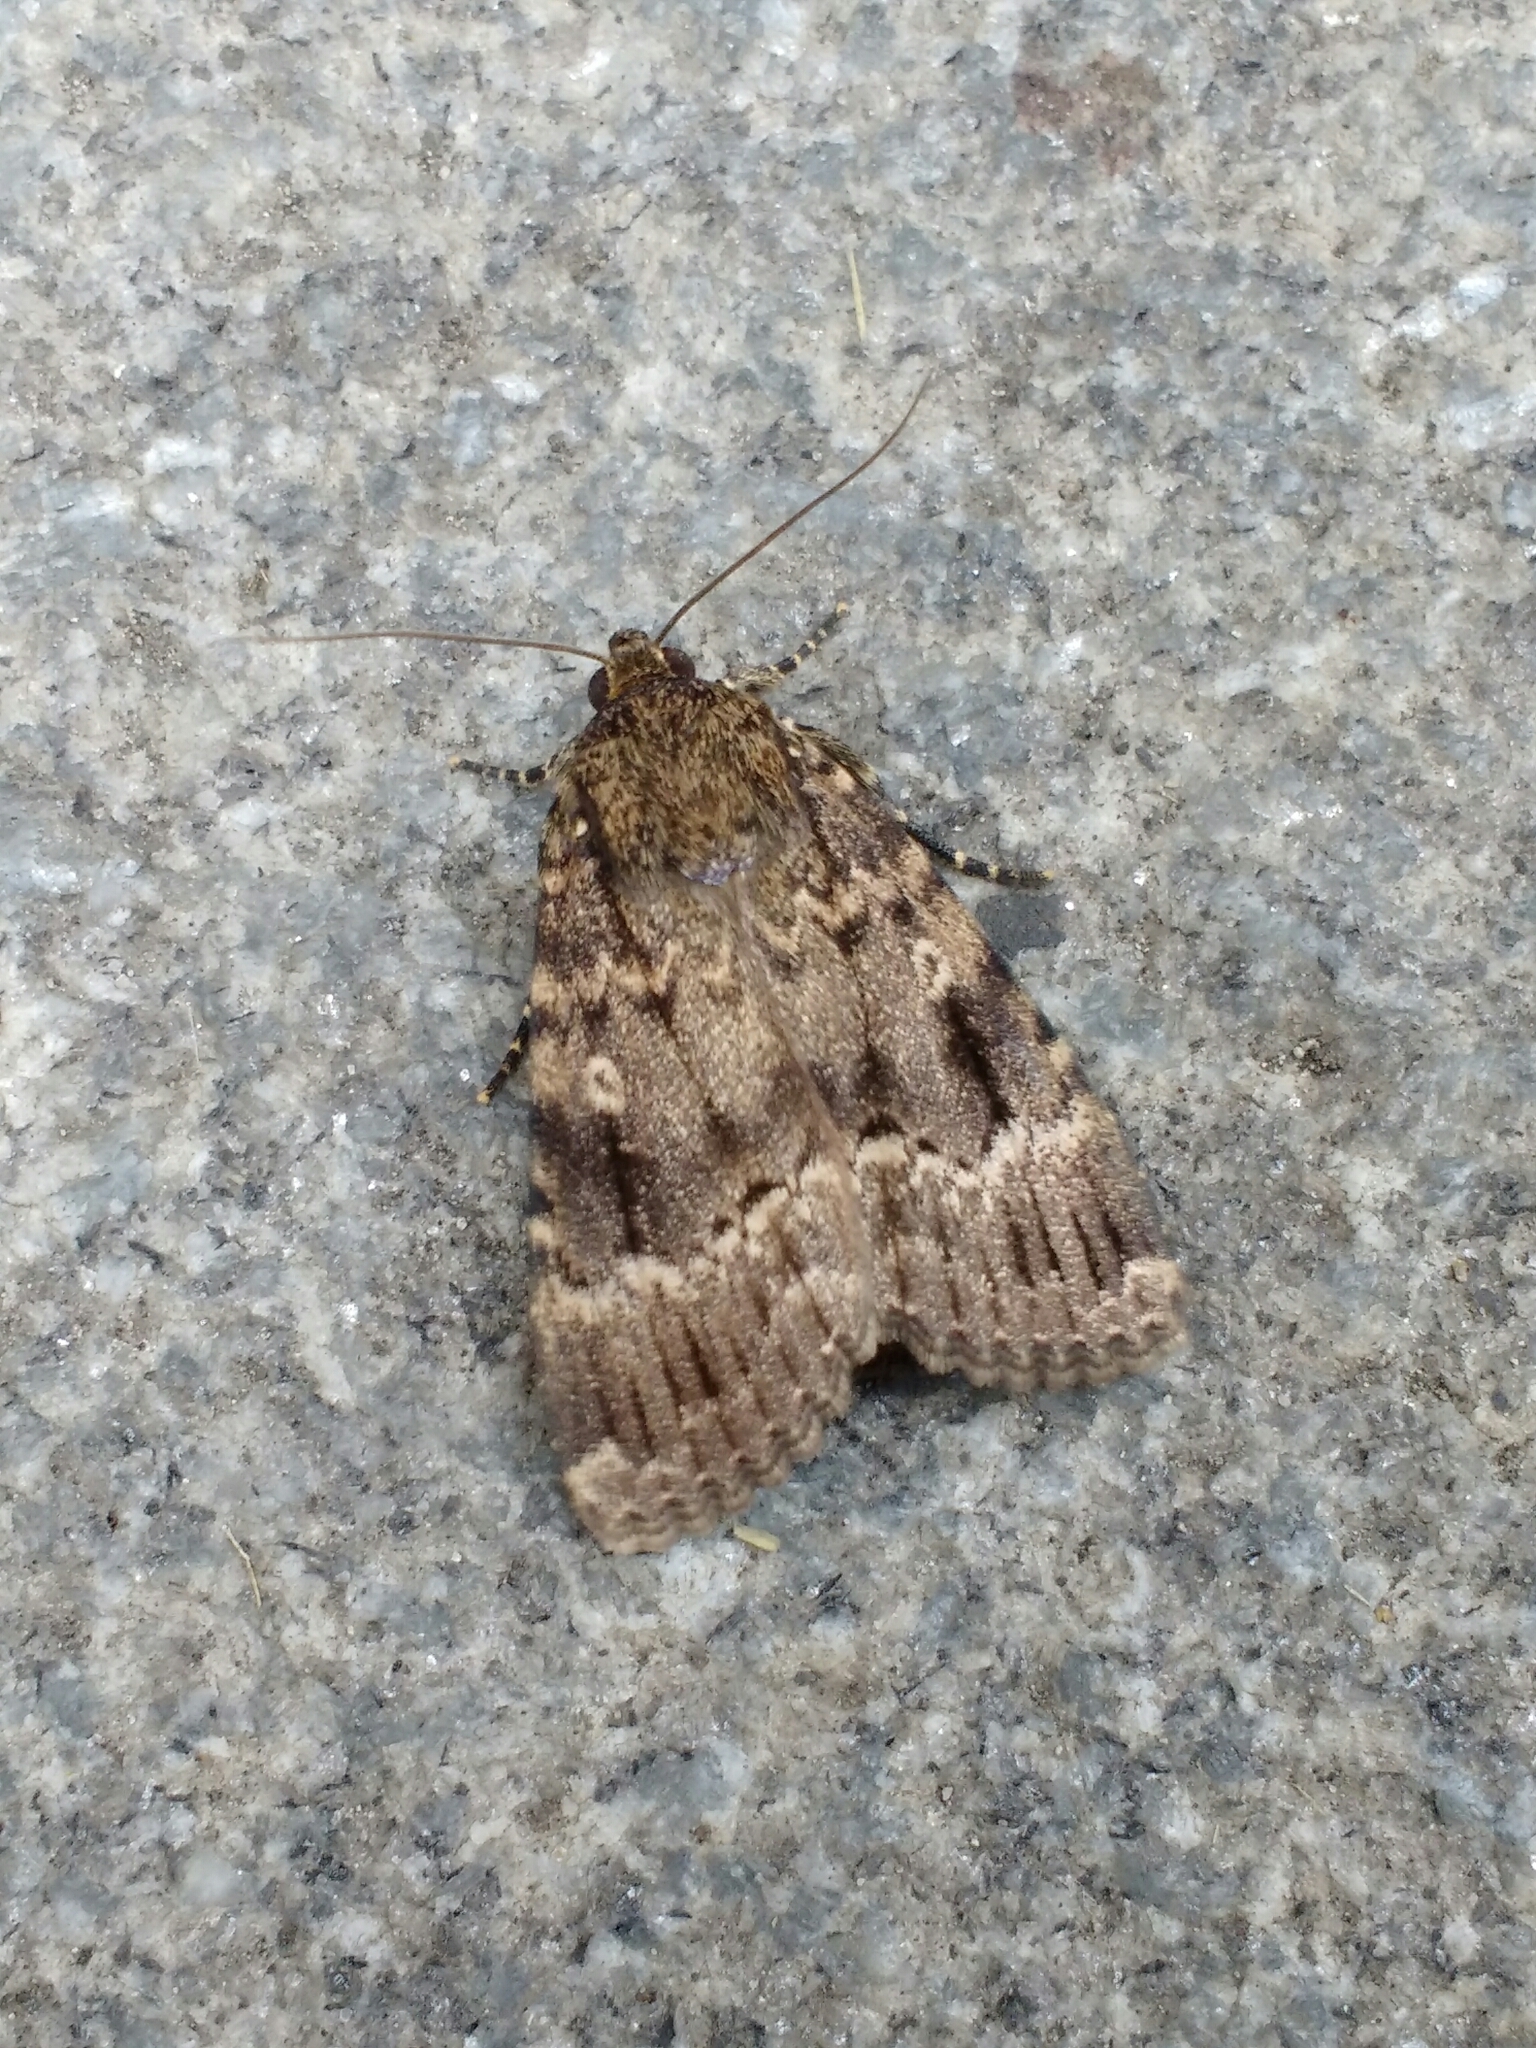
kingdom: Animalia
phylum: Arthropoda
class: Insecta
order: Lepidoptera
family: Noctuidae
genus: Amphipyra
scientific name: Amphipyra berbera
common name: Svensson's copper underwing
